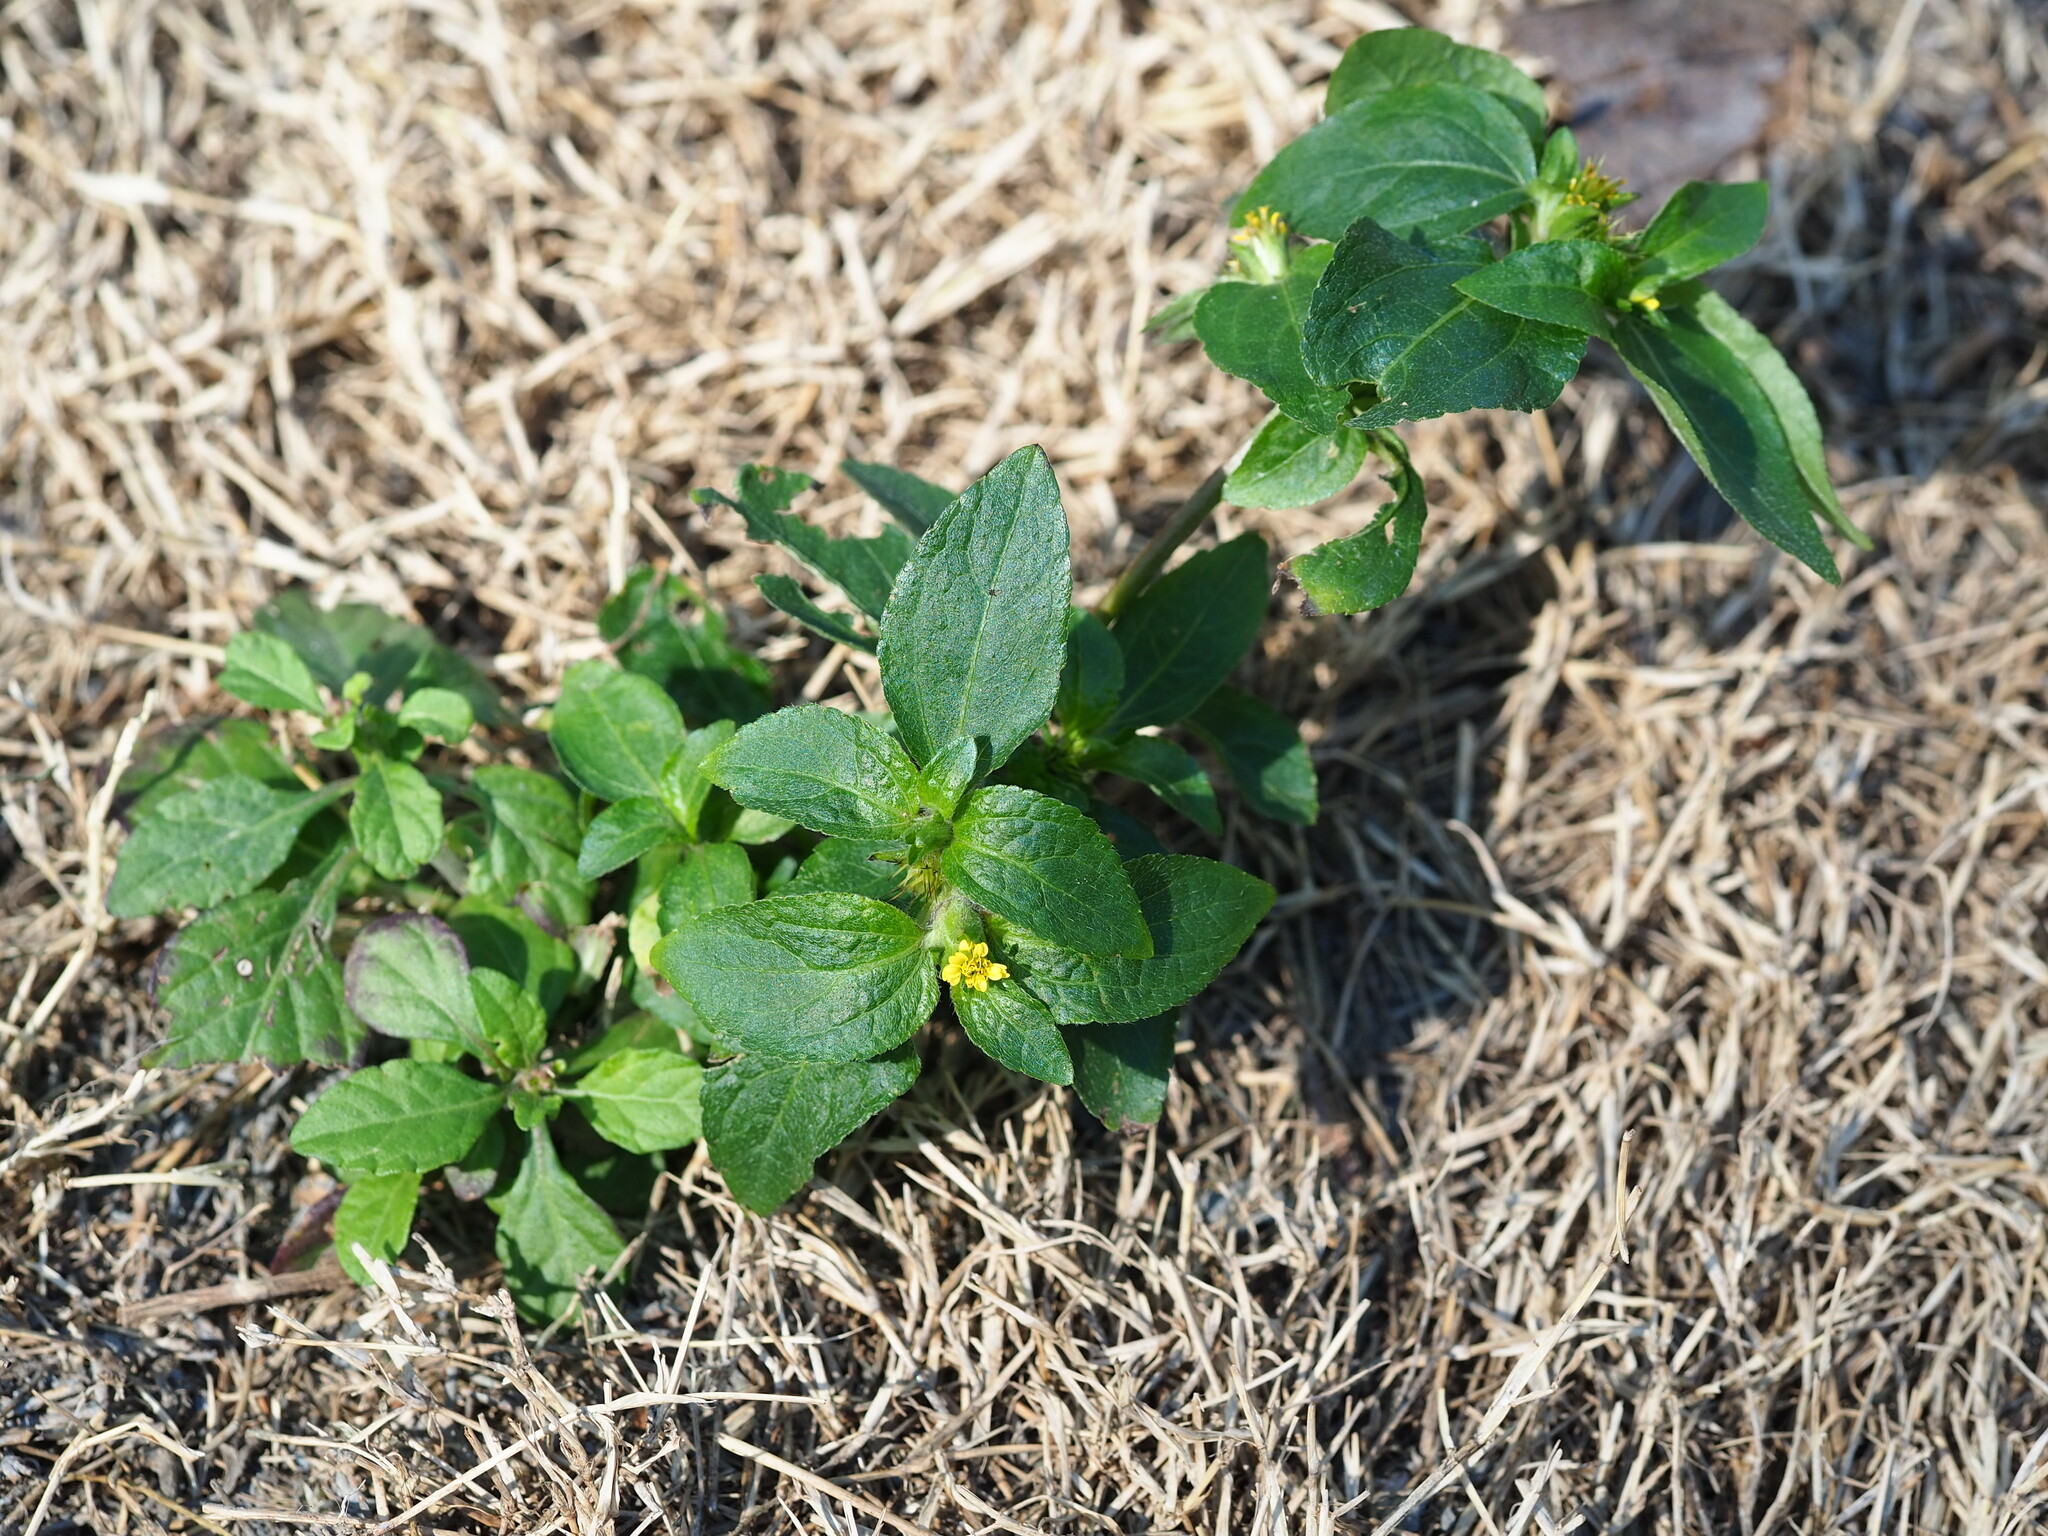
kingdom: Plantae
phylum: Tracheophyta
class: Magnoliopsida
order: Asterales
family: Asteraceae
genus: Synedrella
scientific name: Synedrella nodiflora
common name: Nodeweed
